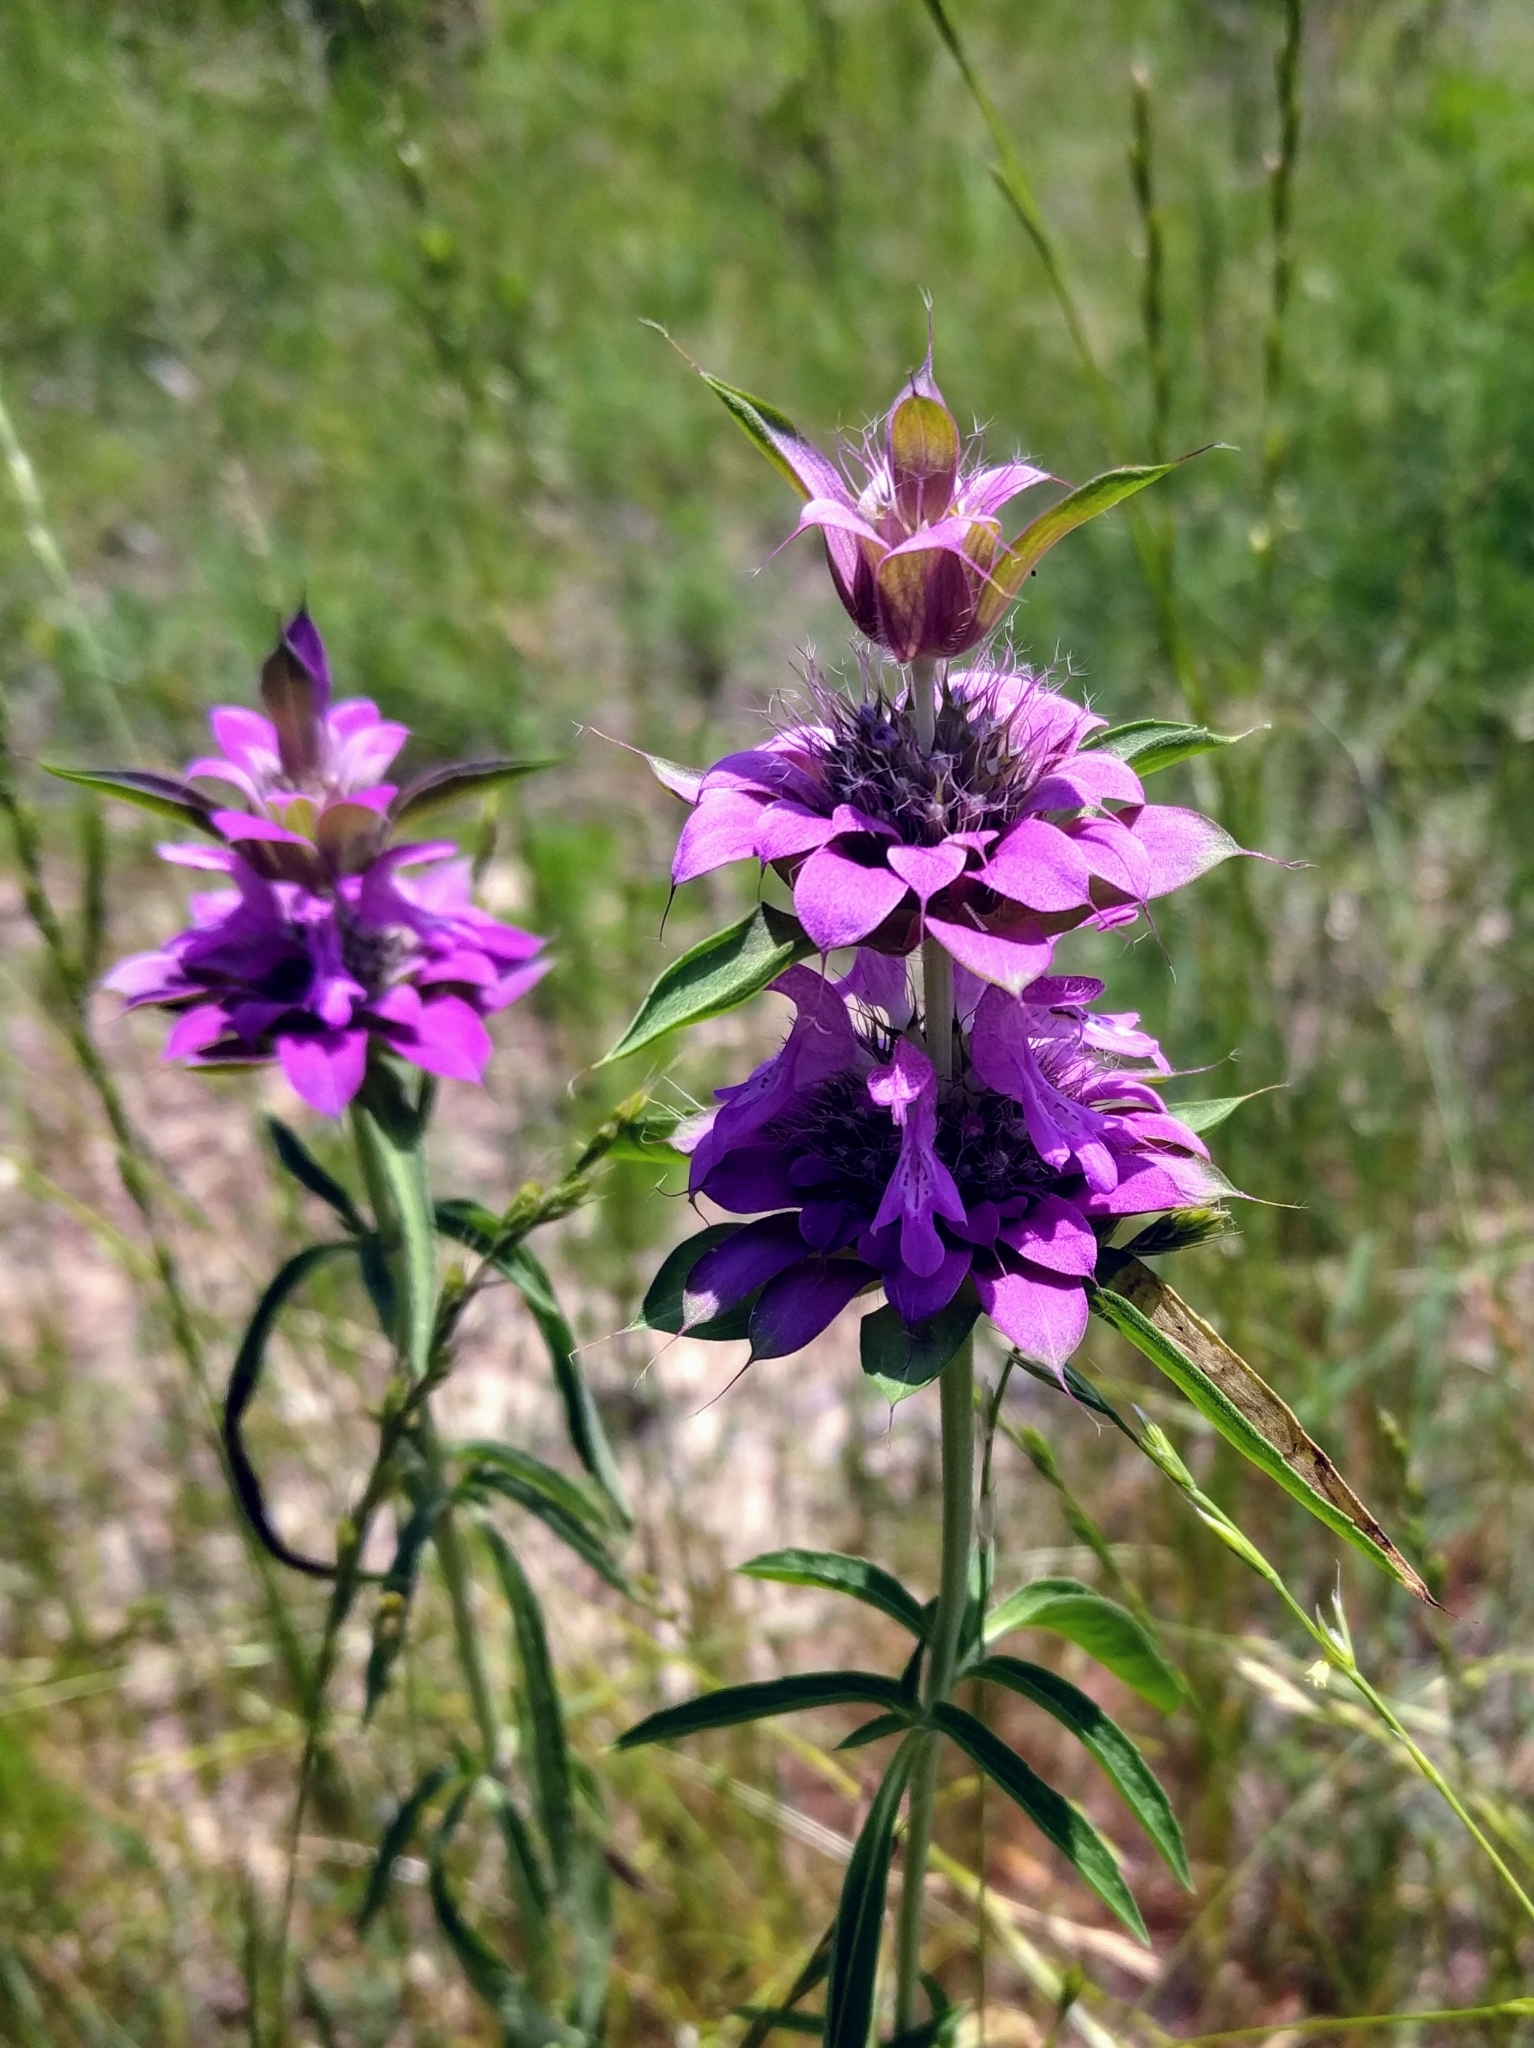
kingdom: Plantae
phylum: Tracheophyta
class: Magnoliopsida
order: Lamiales
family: Lamiaceae
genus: Monarda
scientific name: Monarda citriodora
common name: Lemon beebalm
